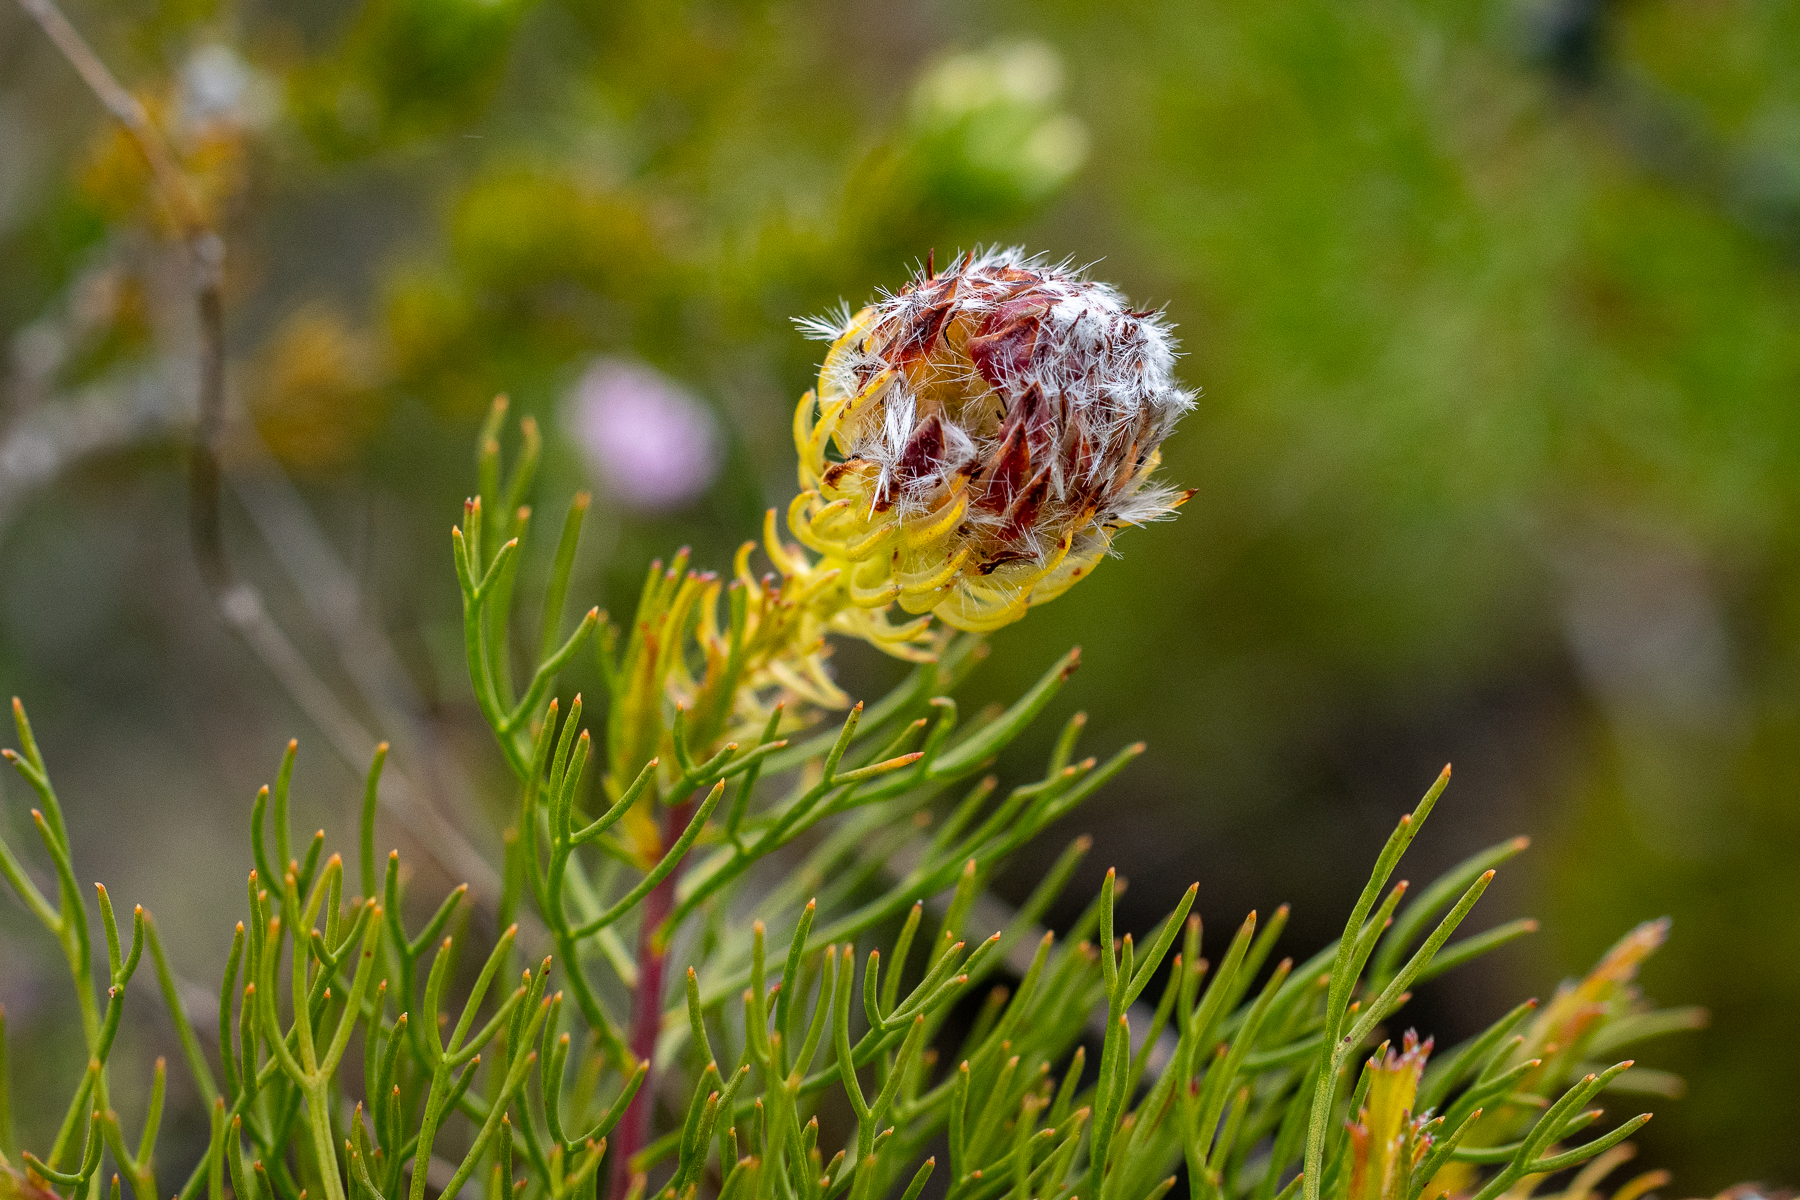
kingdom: Plantae
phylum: Tracheophyta
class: Magnoliopsida
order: Proteales
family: Proteaceae
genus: Serruria
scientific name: Serruria phylicoides
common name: Bearded spiderhead
